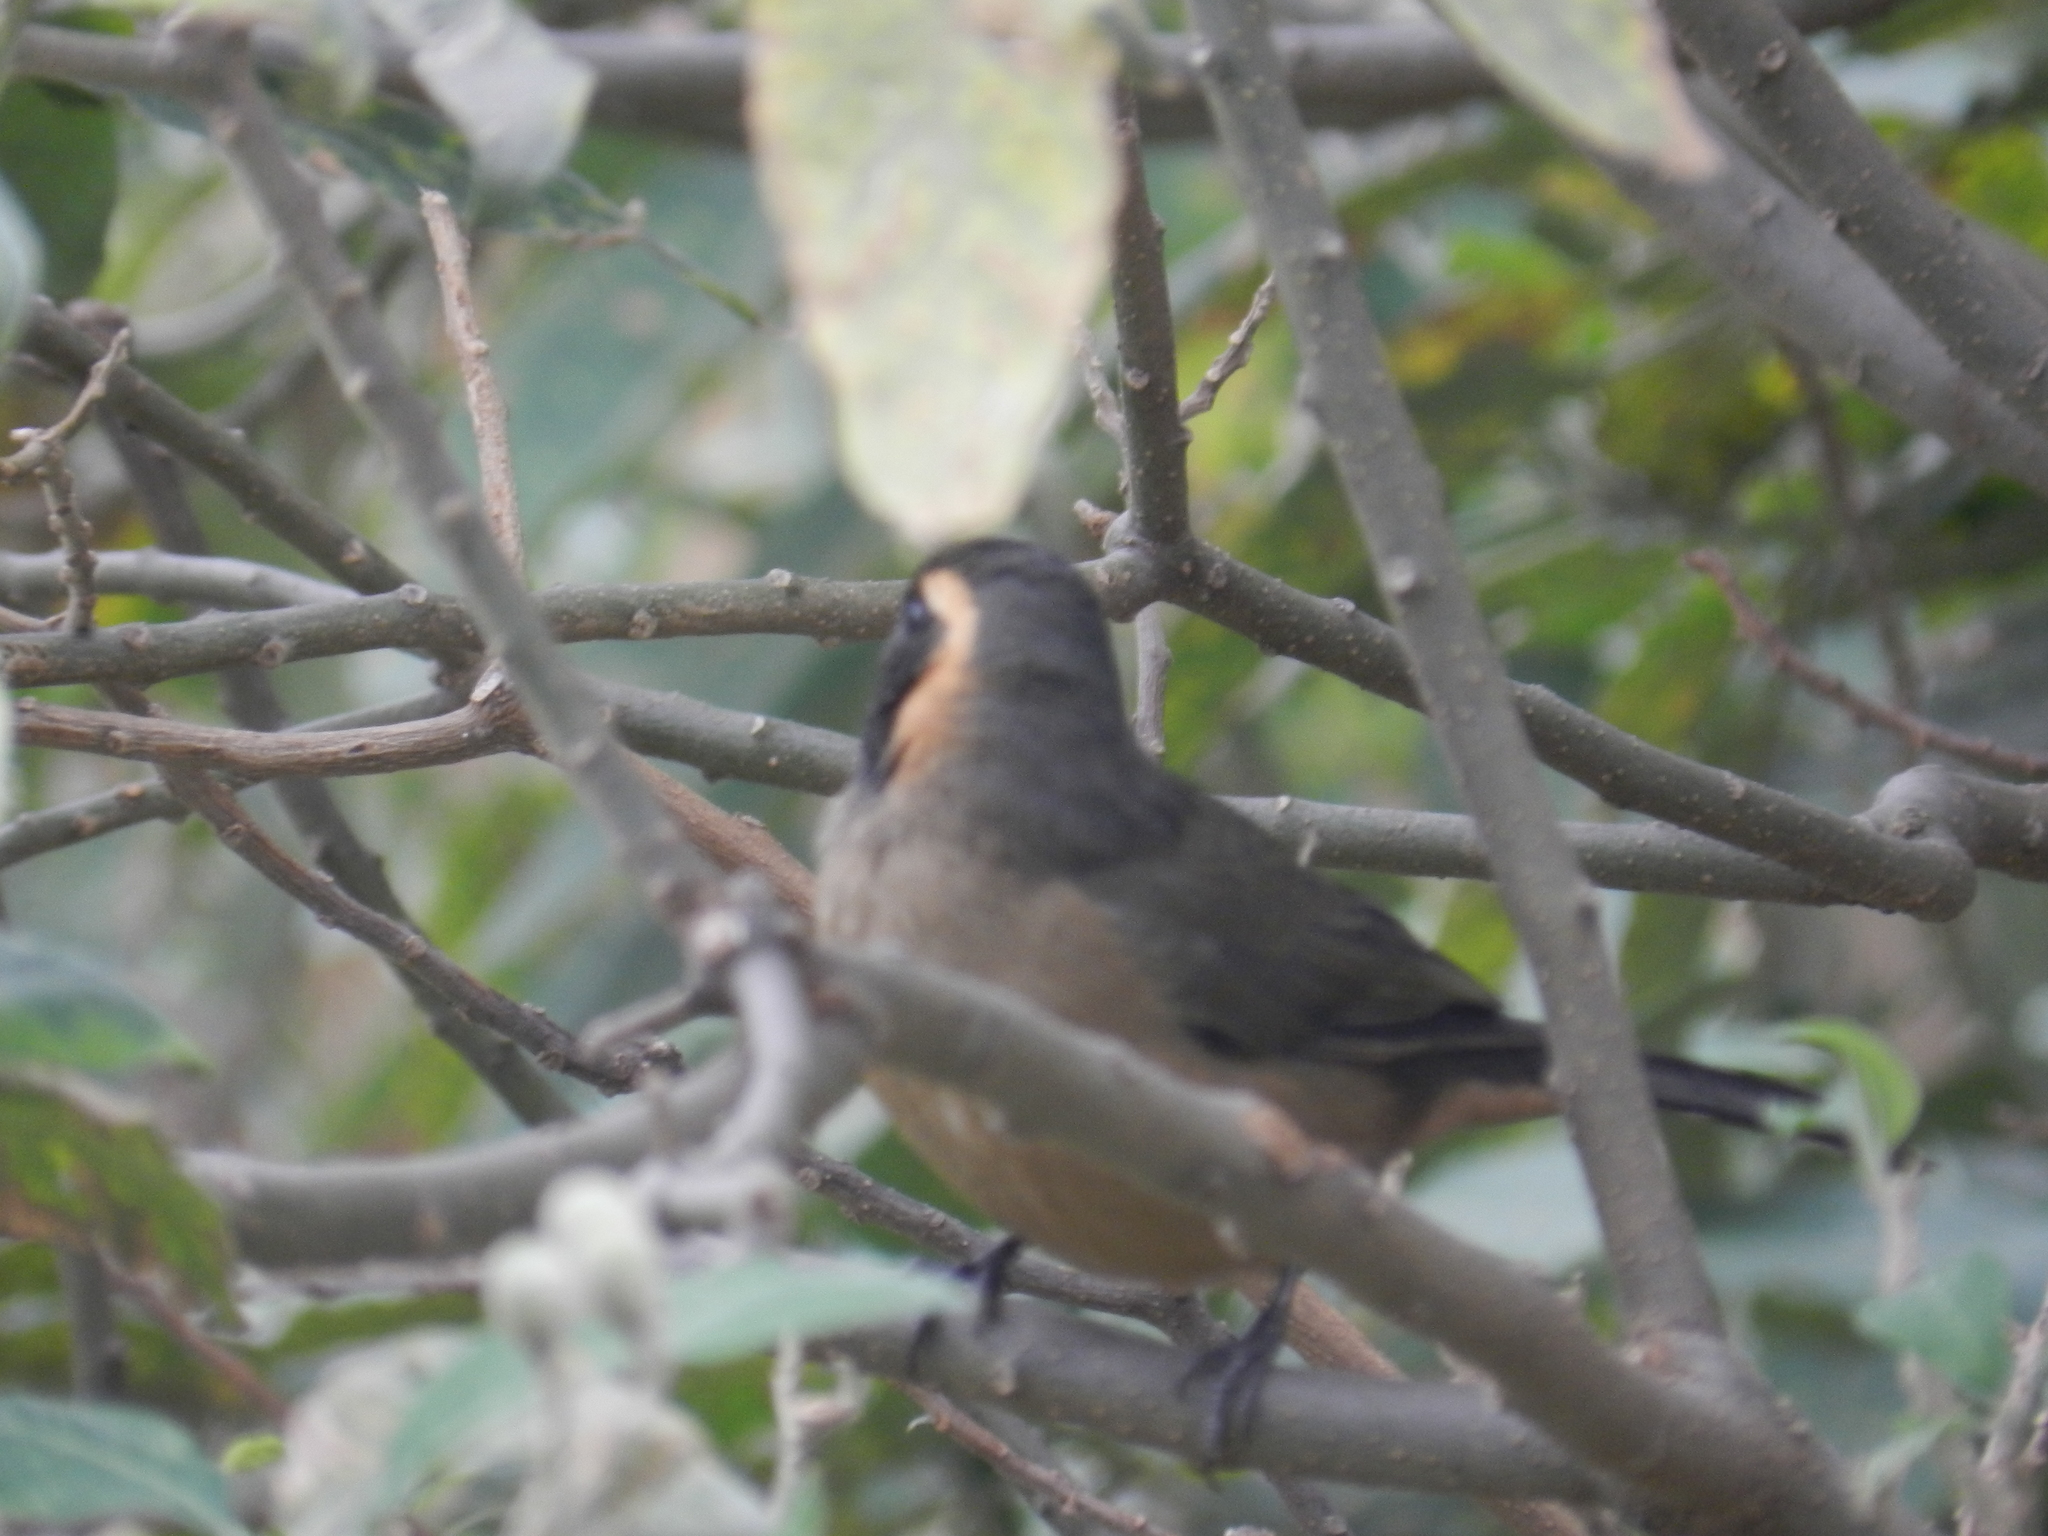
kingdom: Animalia
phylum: Chordata
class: Aves
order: Passeriformes
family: Thraupidae
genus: Saltator
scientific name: Saltator aurantiirostris
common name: Golden-billed saltator
